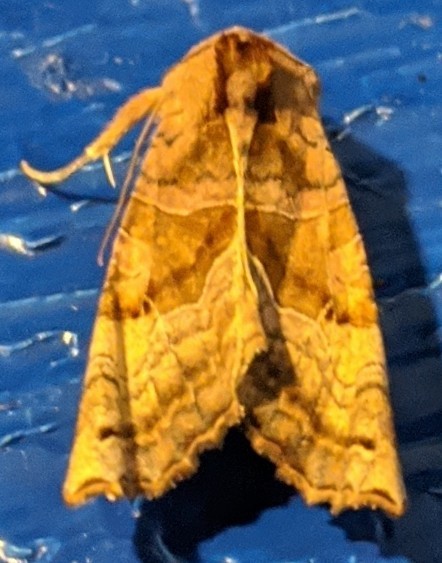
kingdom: Animalia
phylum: Arthropoda
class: Insecta
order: Lepidoptera
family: Noctuidae
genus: Phlogophora
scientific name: Phlogophora periculosa
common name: Brown angle shades
